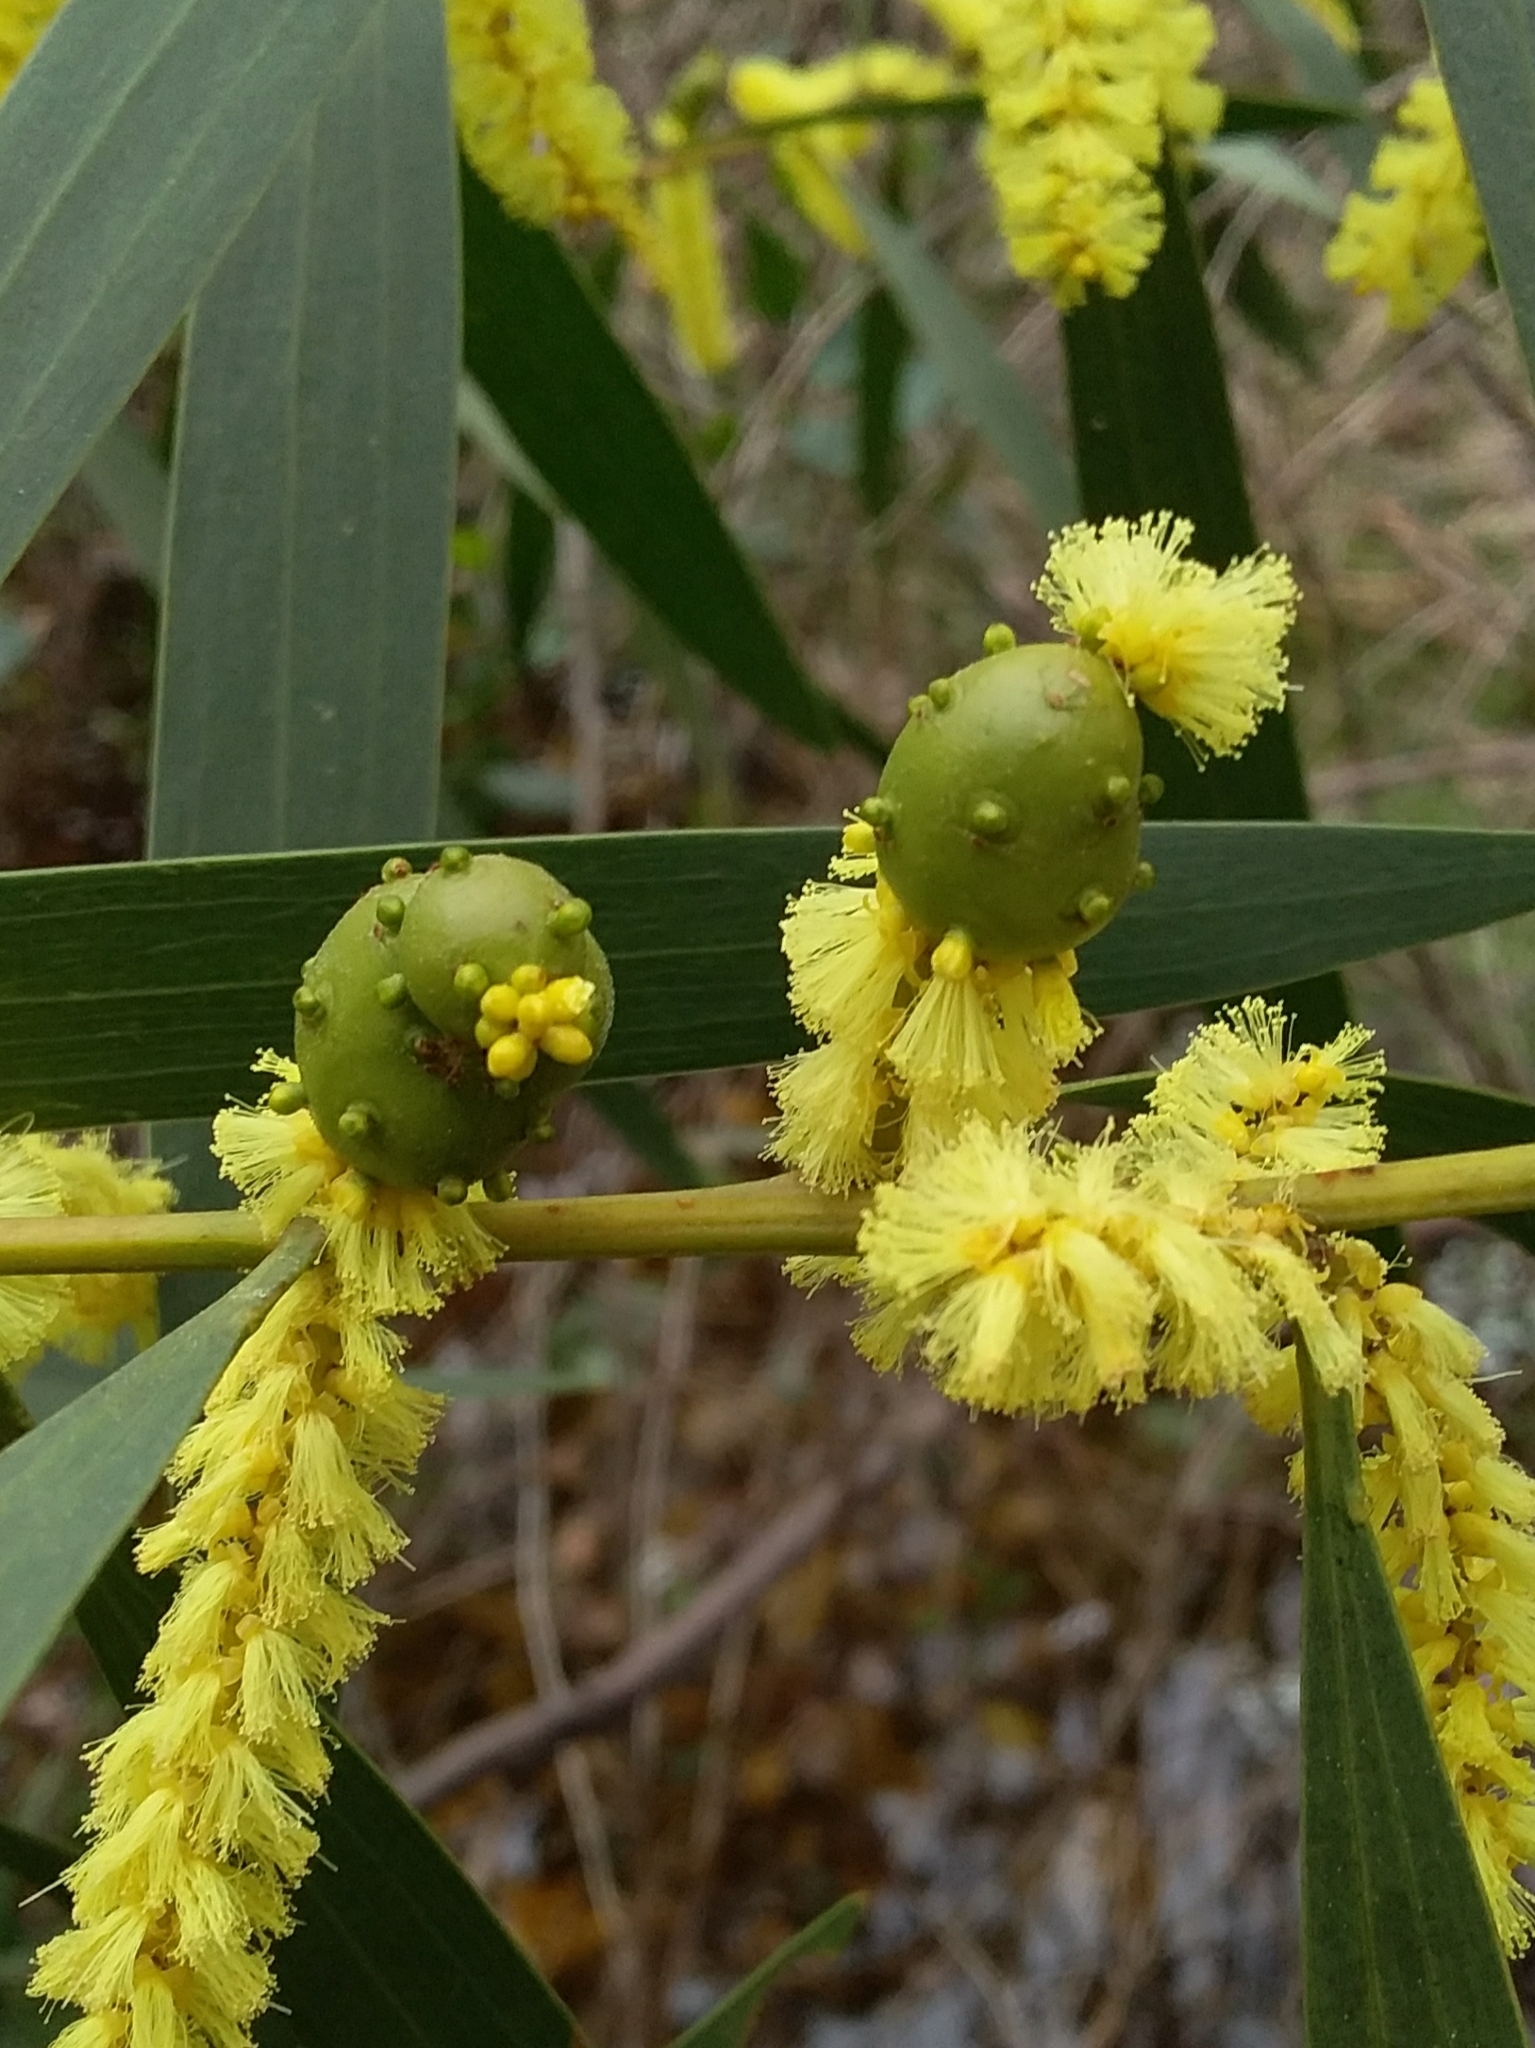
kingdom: Animalia
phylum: Arthropoda
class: Insecta
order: Hymenoptera
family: Pteromalidae
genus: Trichilogaster
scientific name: Trichilogaster acaciaelongifoliae
